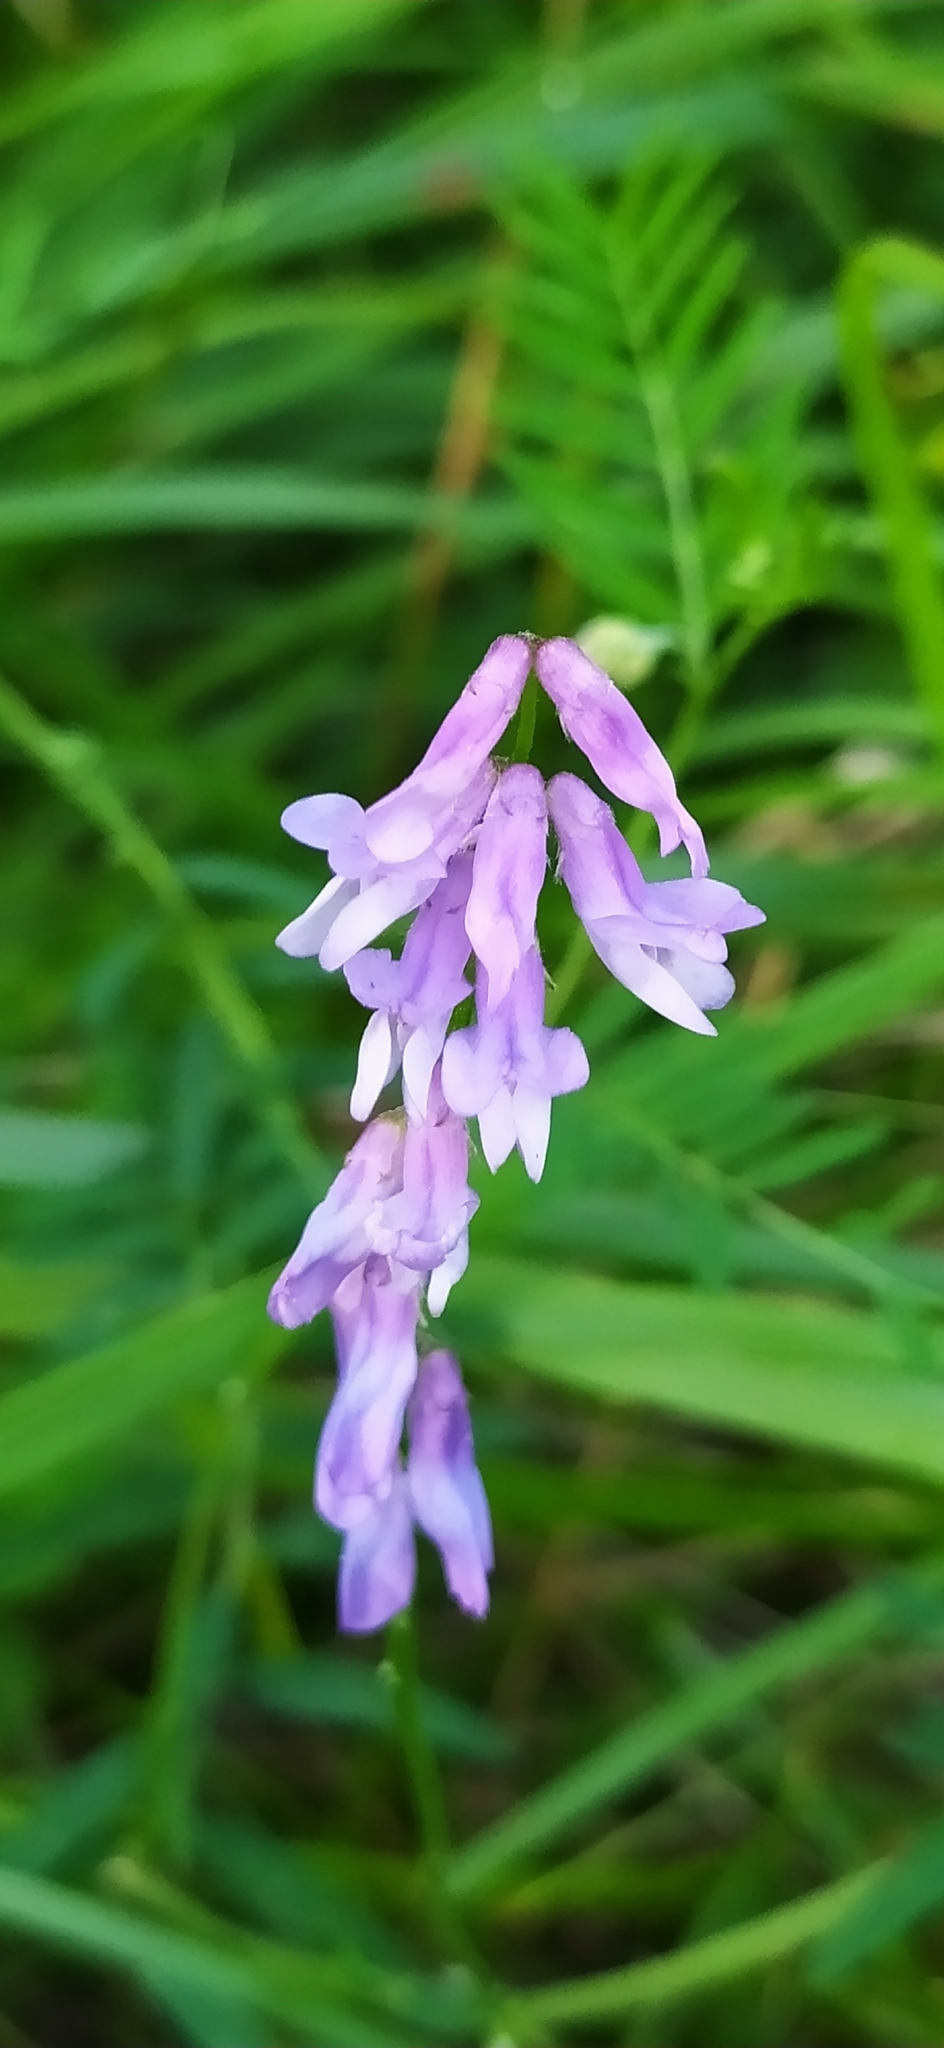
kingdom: Plantae
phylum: Tracheophyta
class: Magnoliopsida
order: Fabales
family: Fabaceae
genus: Vicia
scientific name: Vicia cracca
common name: Bird vetch
